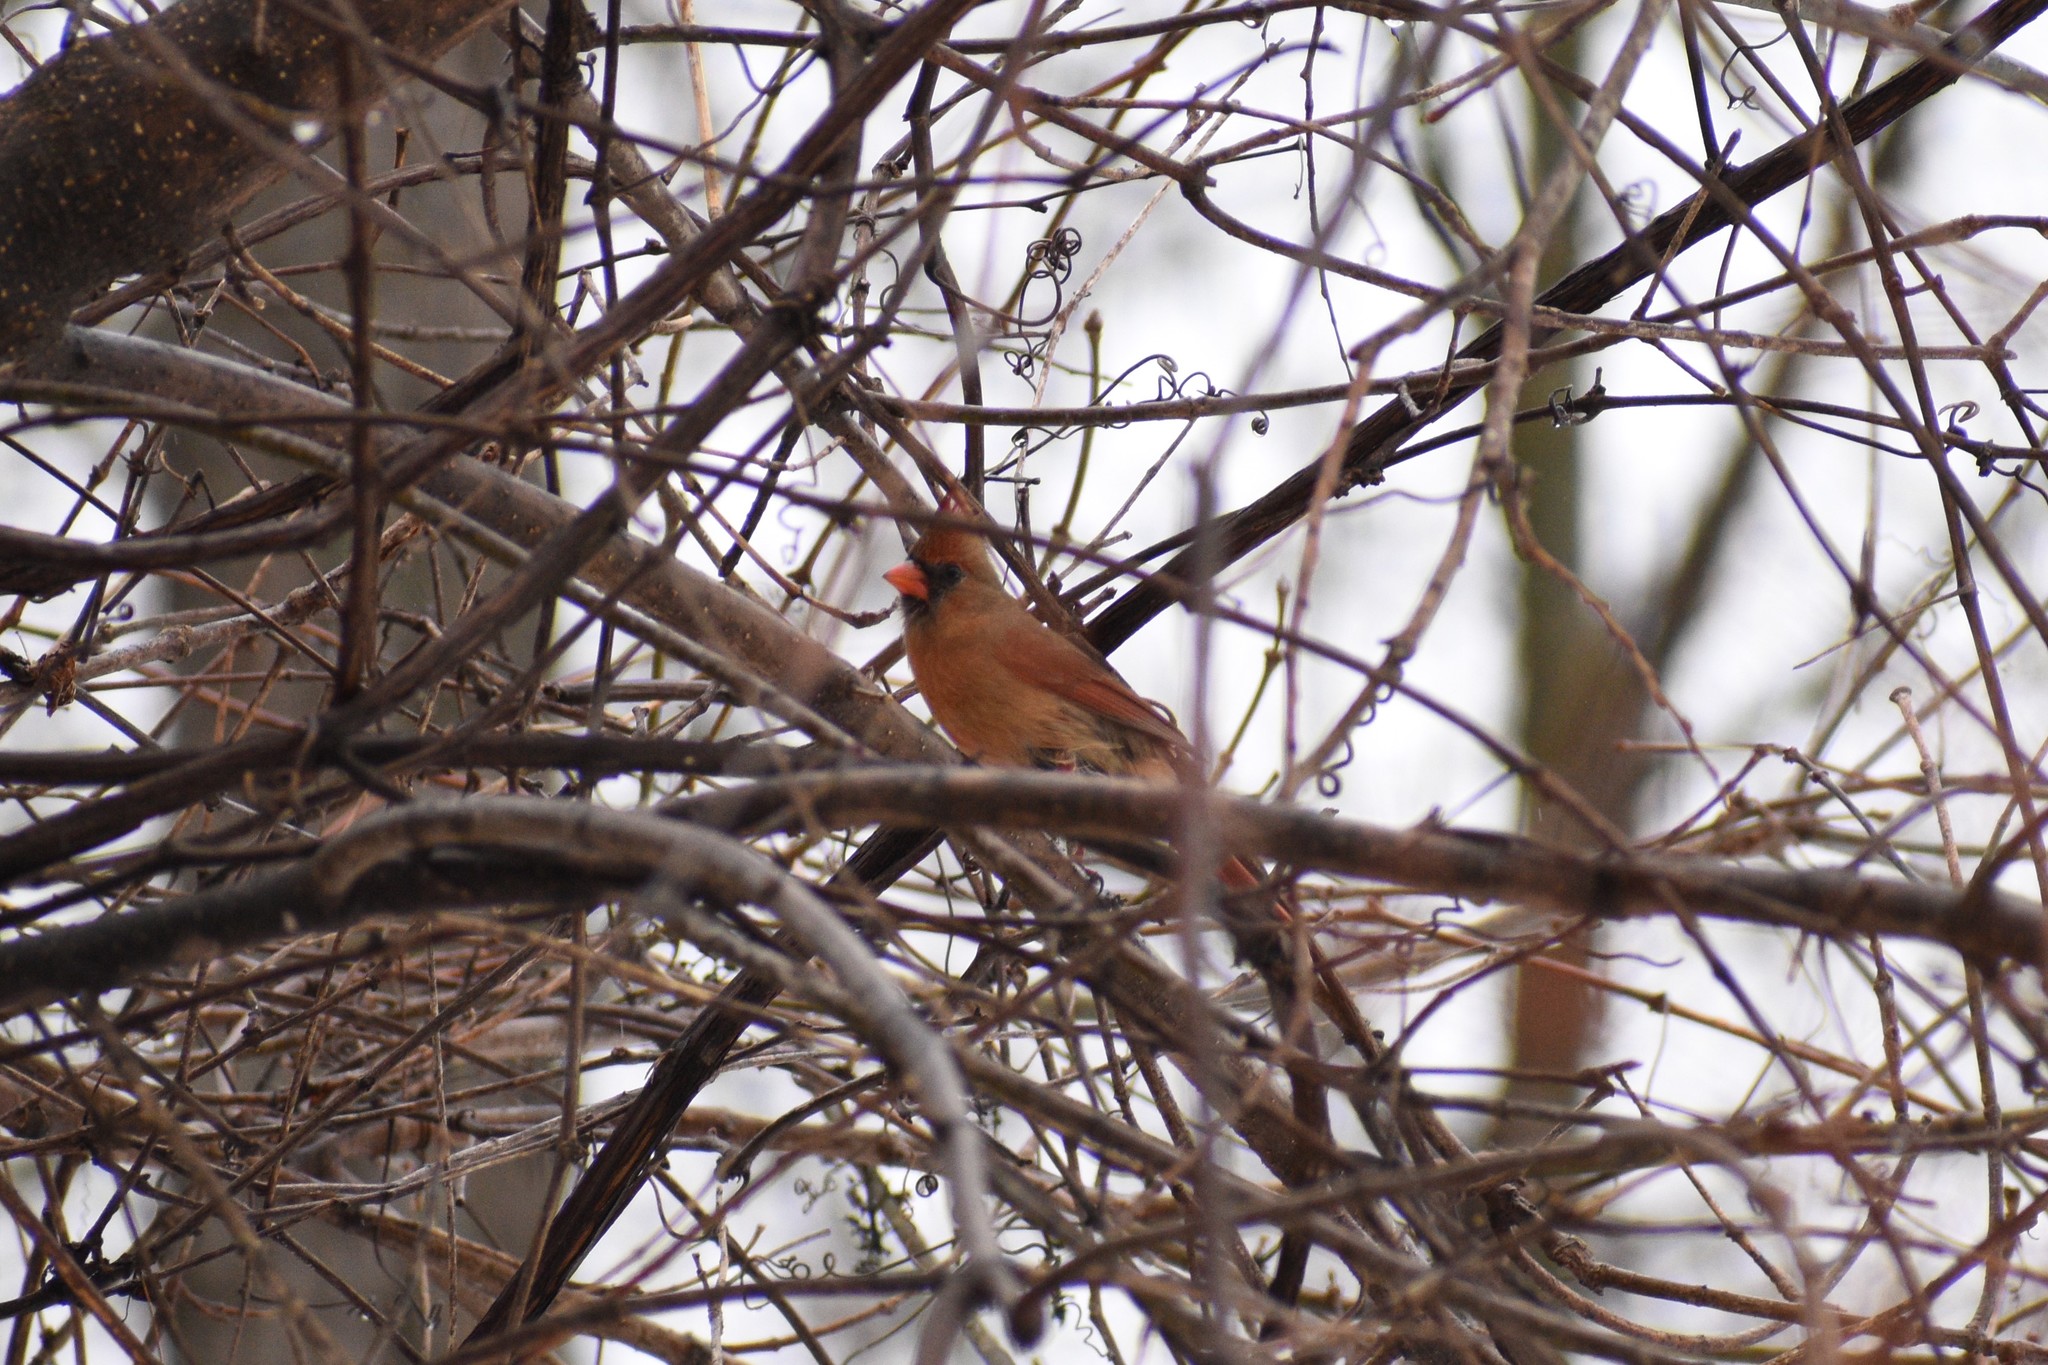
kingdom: Animalia
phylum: Chordata
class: Aves
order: Passeriformes
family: Cardinalidae
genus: Cardinalis
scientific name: Cardinalis cardinalis
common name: Northern cardinal
